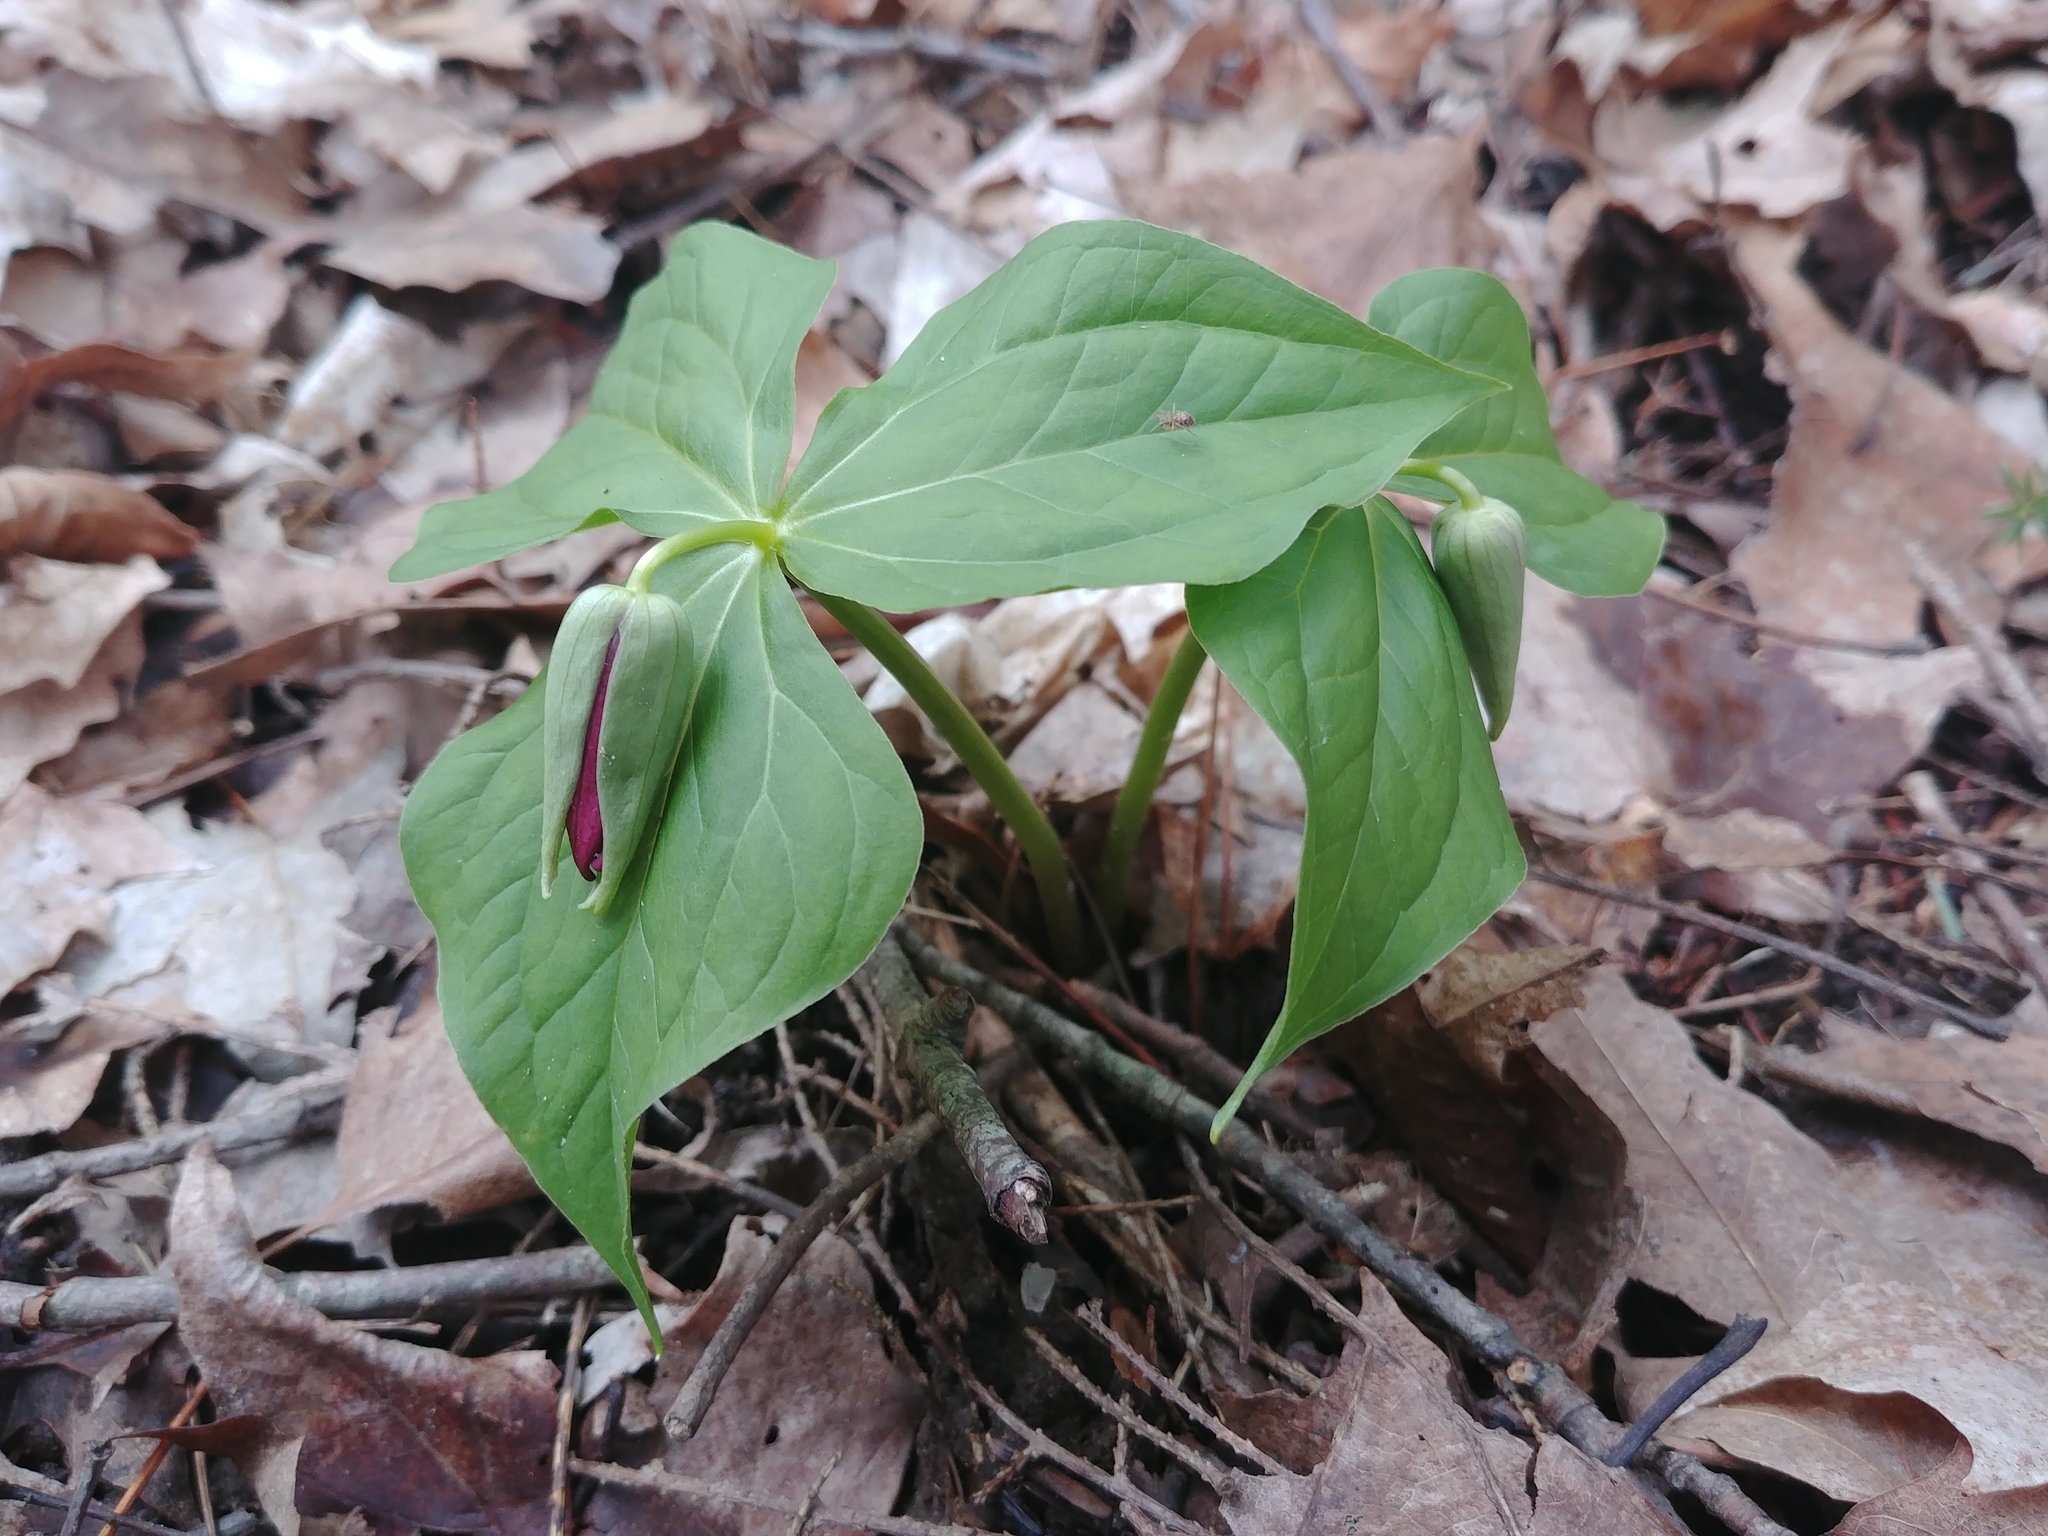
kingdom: Plantae
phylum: Tracheophyta
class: Liliopsida
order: Liliales
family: Melanthiaceae
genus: Trillium
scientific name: Trillium erectum
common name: Purple trillium
